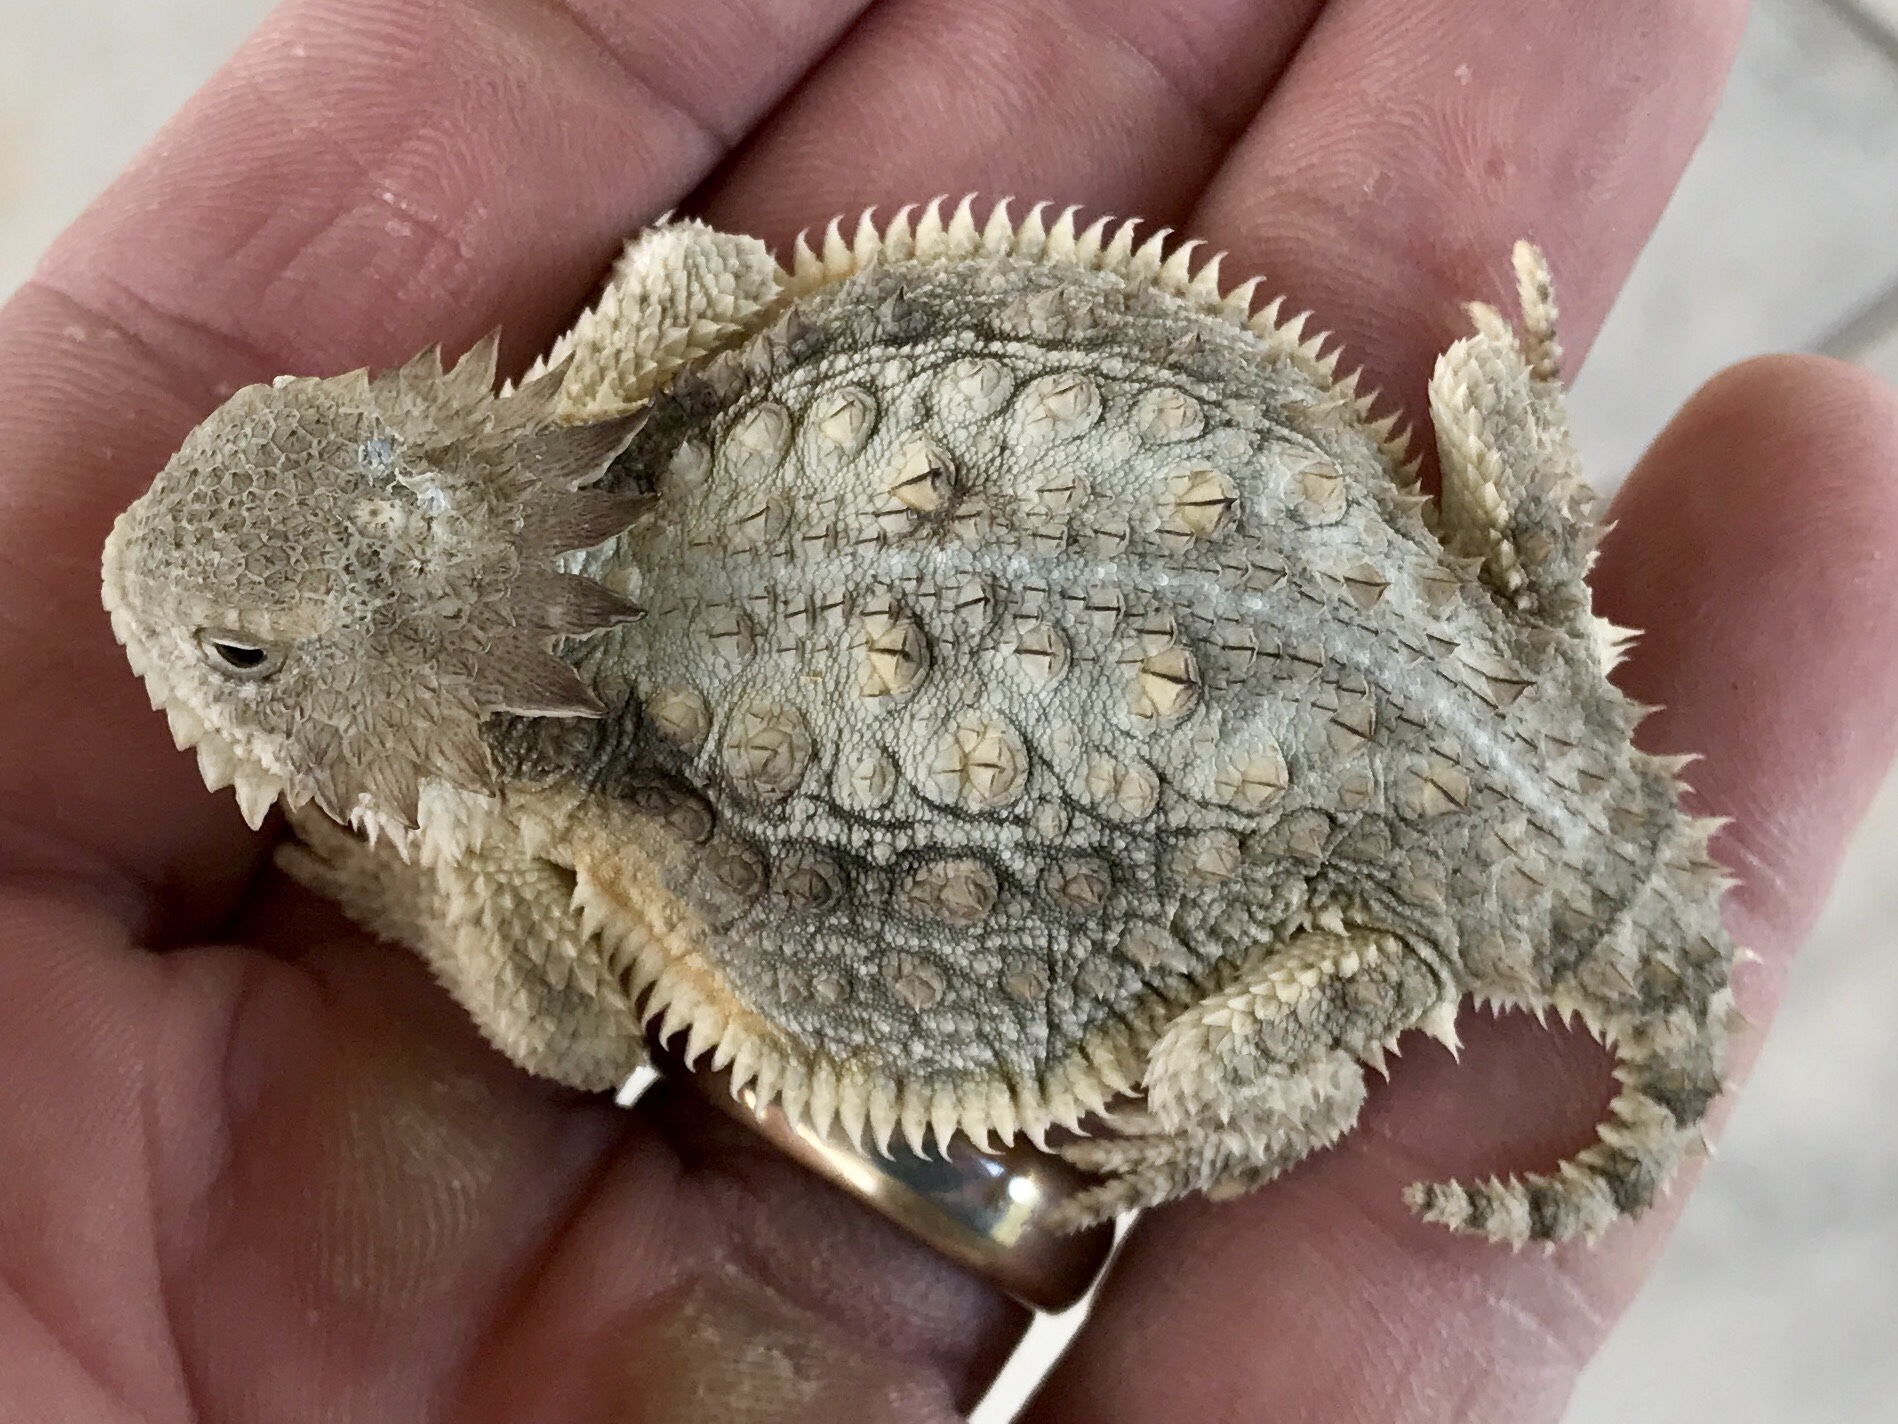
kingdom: Animalia
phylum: Chordata
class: Squamata
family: Phrynosomatidae
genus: Phrynosoma
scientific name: Phrynosoma solare
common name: Regal horned lizard
